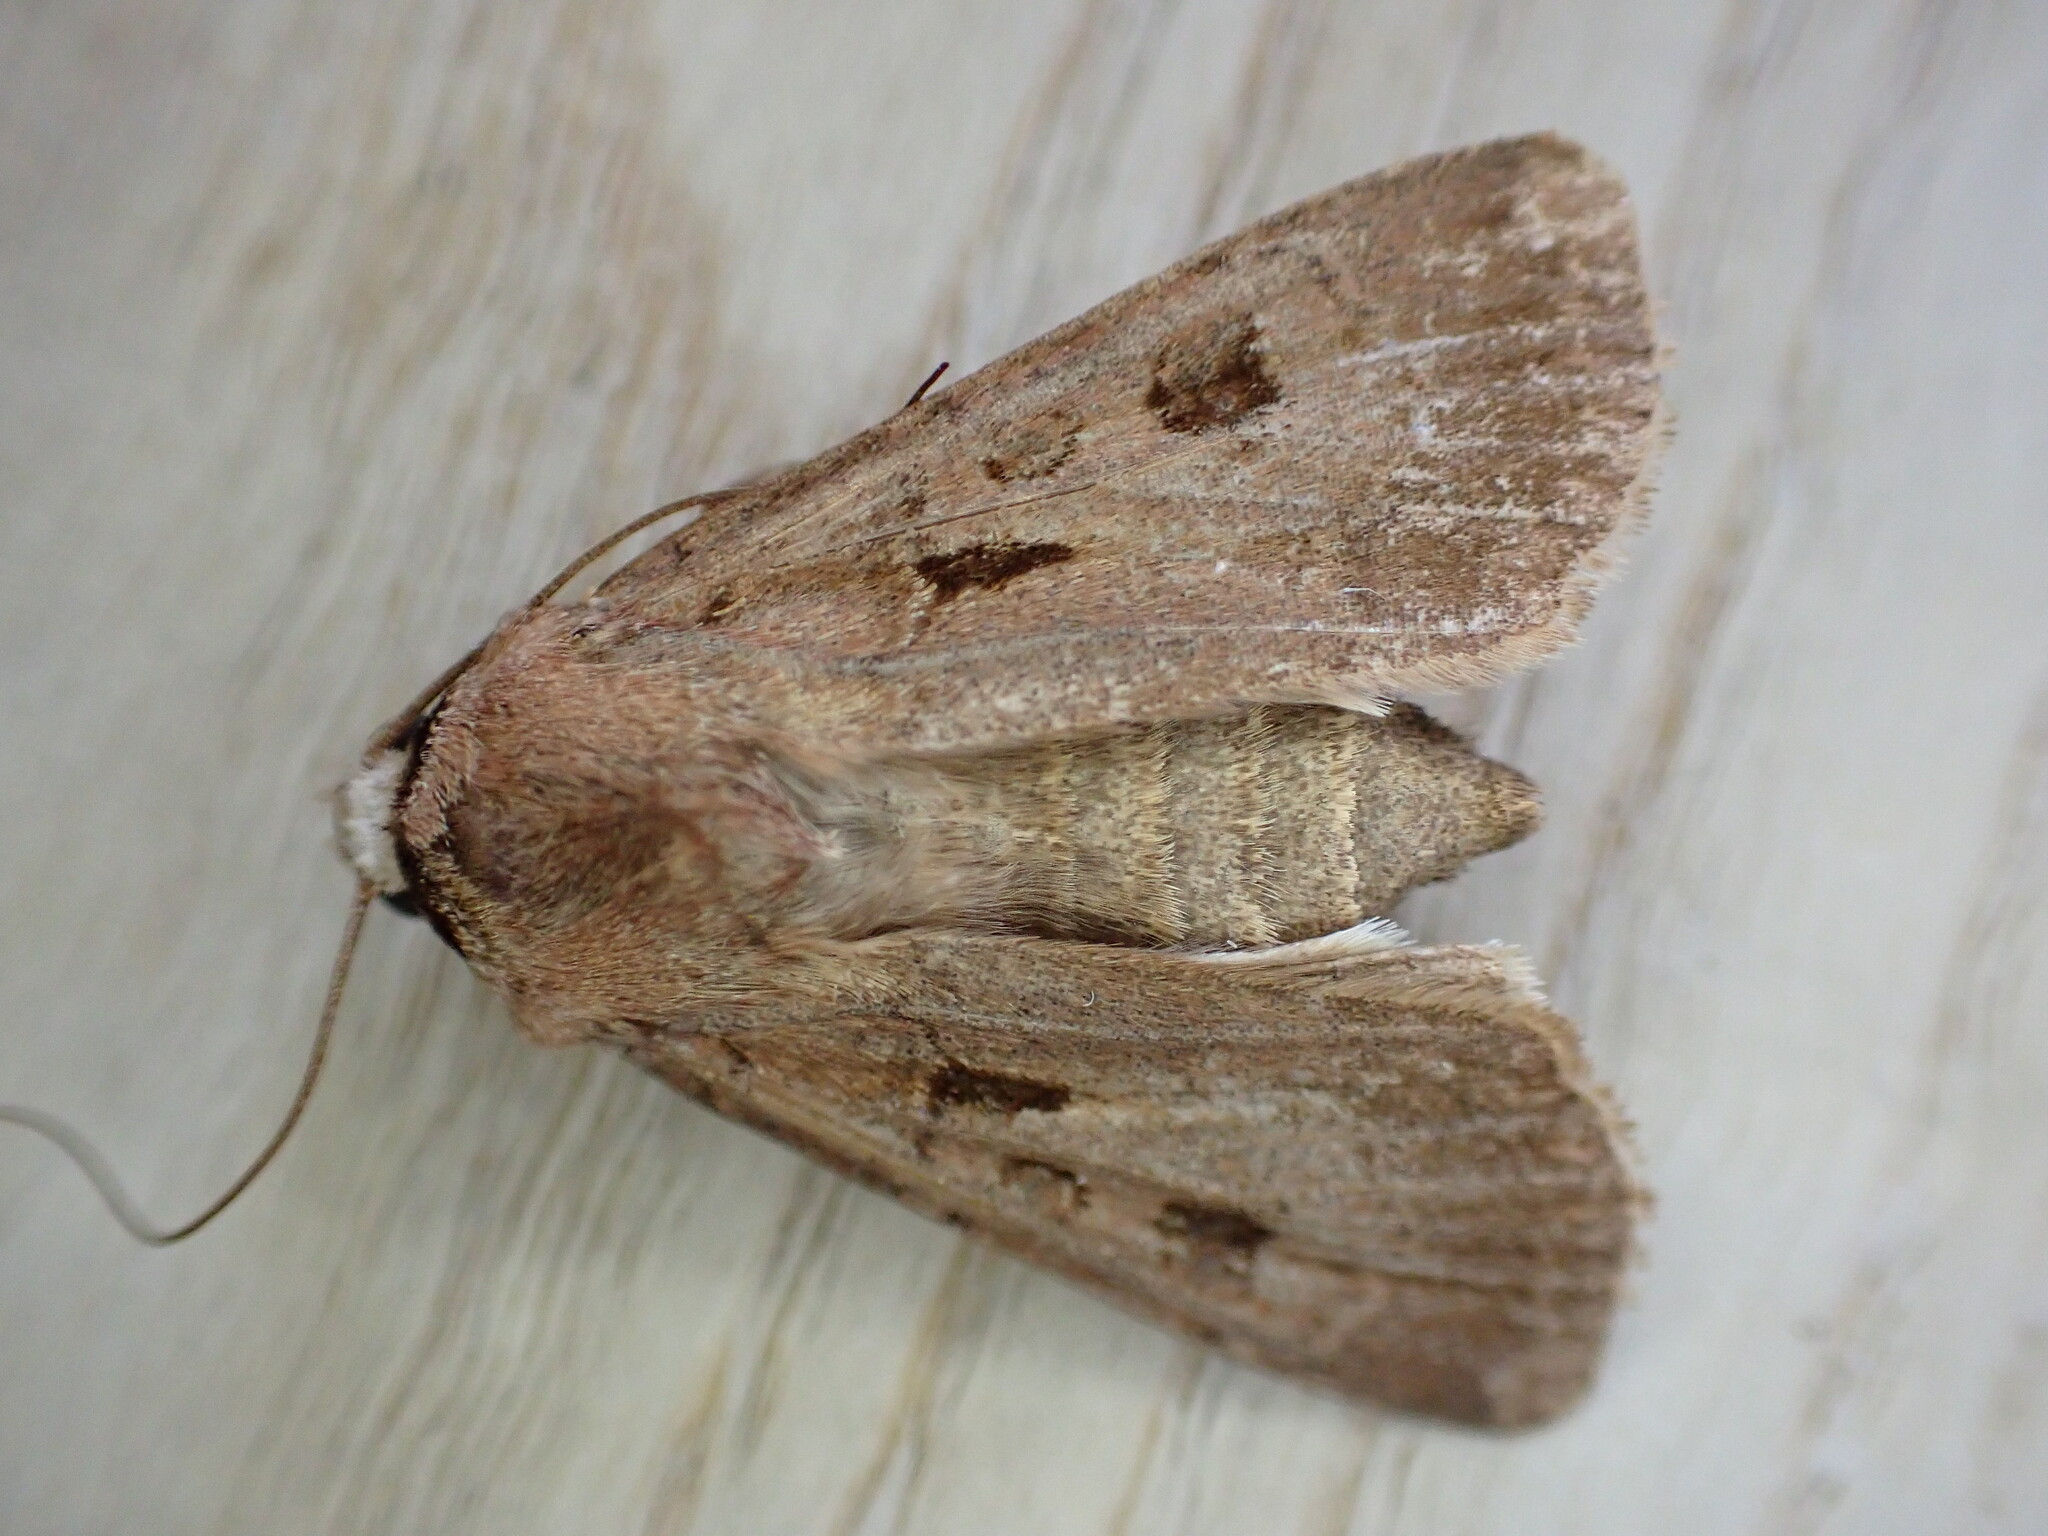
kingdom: Animalia
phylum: Arthropoda
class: Insecta
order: Lepidoptera
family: Noctuidae
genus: Agrotis
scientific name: Agrotis exclamationis
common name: Heart and dart
